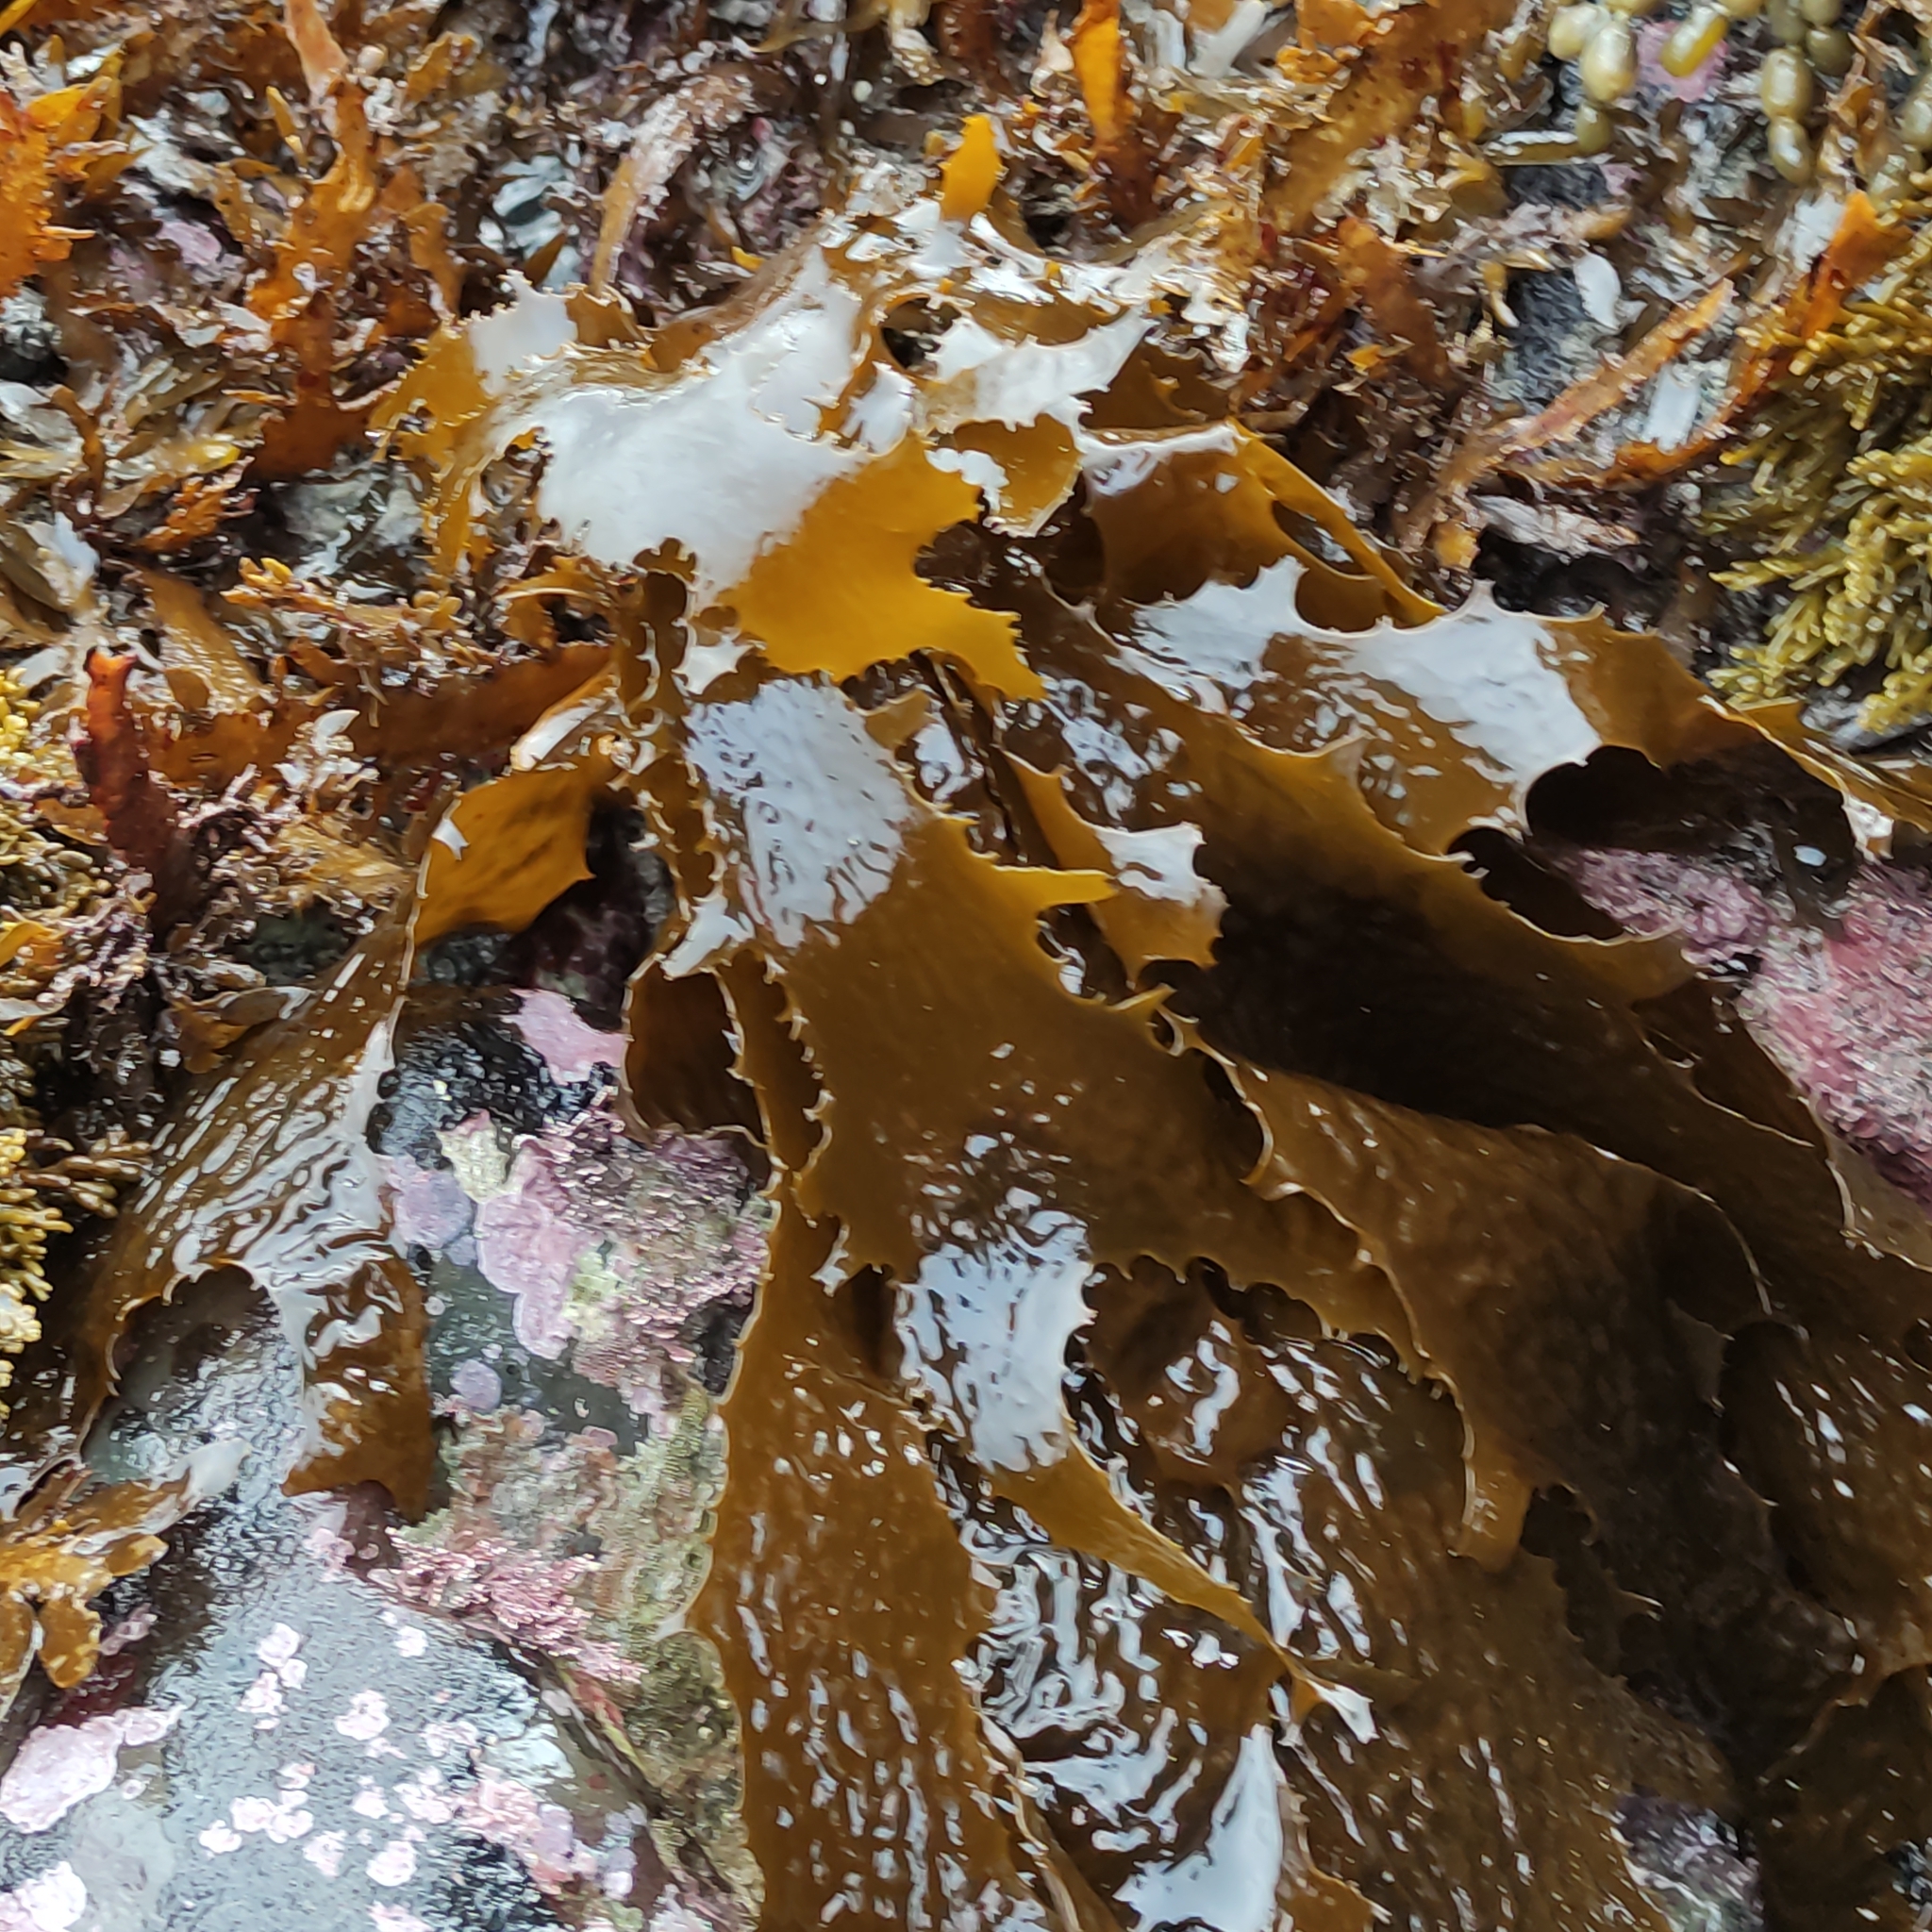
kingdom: Chromista
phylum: Ochrophyta
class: Phaeophyceae
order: Laminariales
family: Lessoniaceae
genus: Ecklonia
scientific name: Ecklonia radiata
